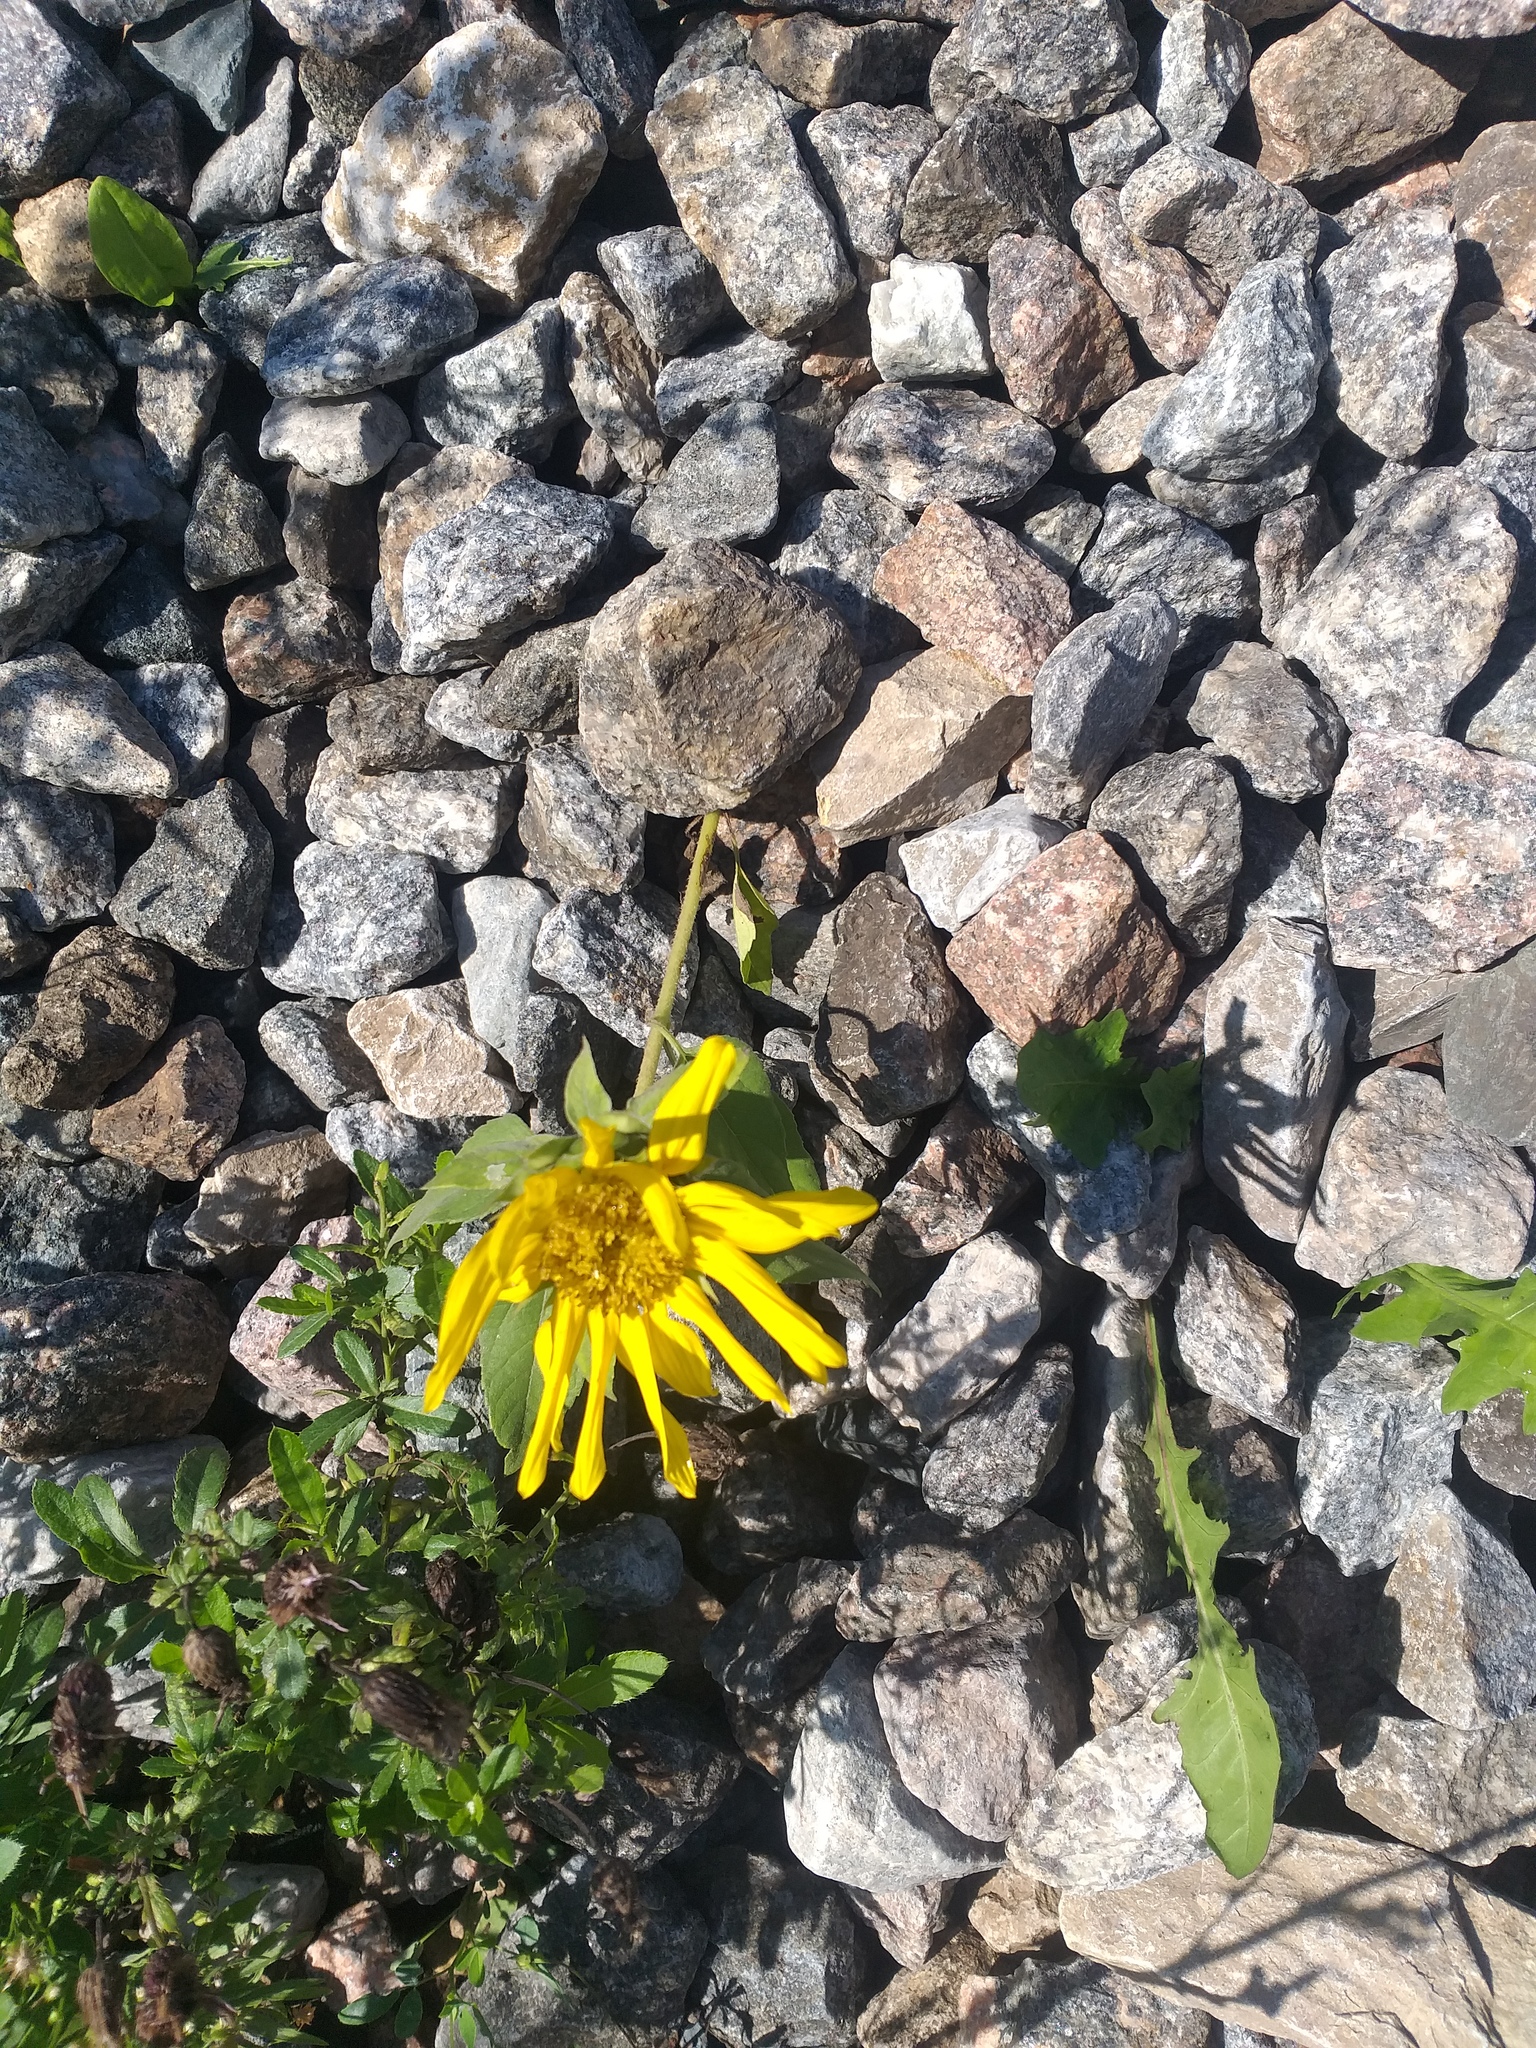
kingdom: Plantae
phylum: Tracheophyta
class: Magnoliopsida
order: Asterales
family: Asteraceae
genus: Helianthus
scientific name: Helianthus annuus
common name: Sunflower
